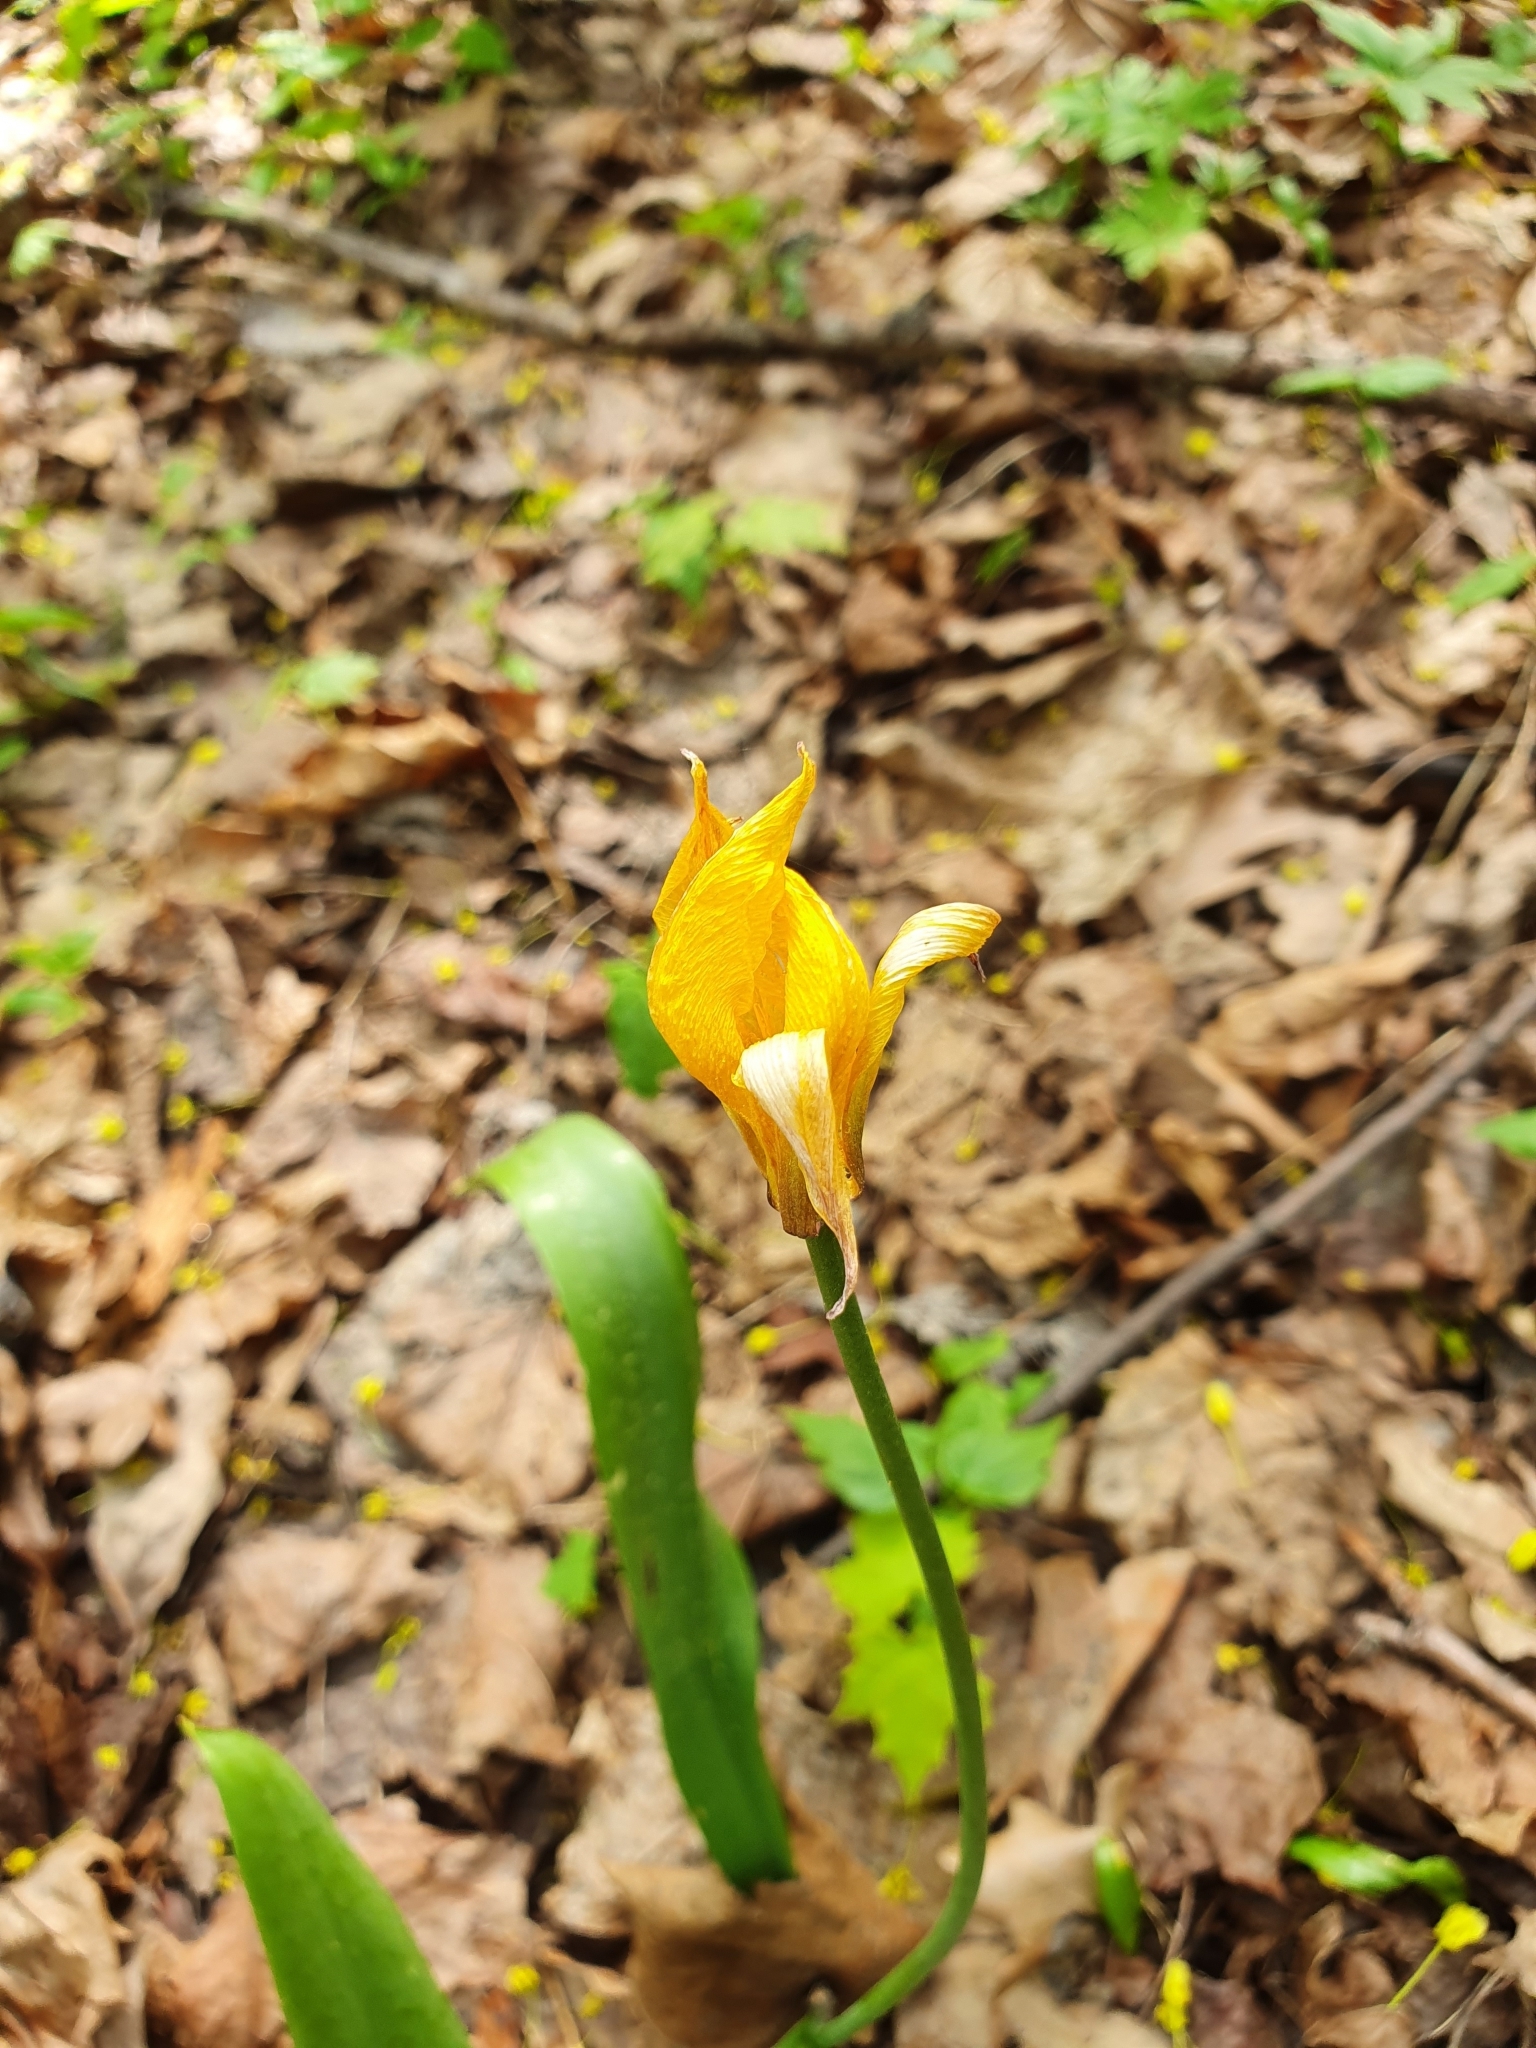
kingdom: Plantae
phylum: Tracheophyta
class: Liliopsida
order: Liliales
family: Liliaceae
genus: Tulipa
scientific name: Tulipa sylvestris
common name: Wild tulip
